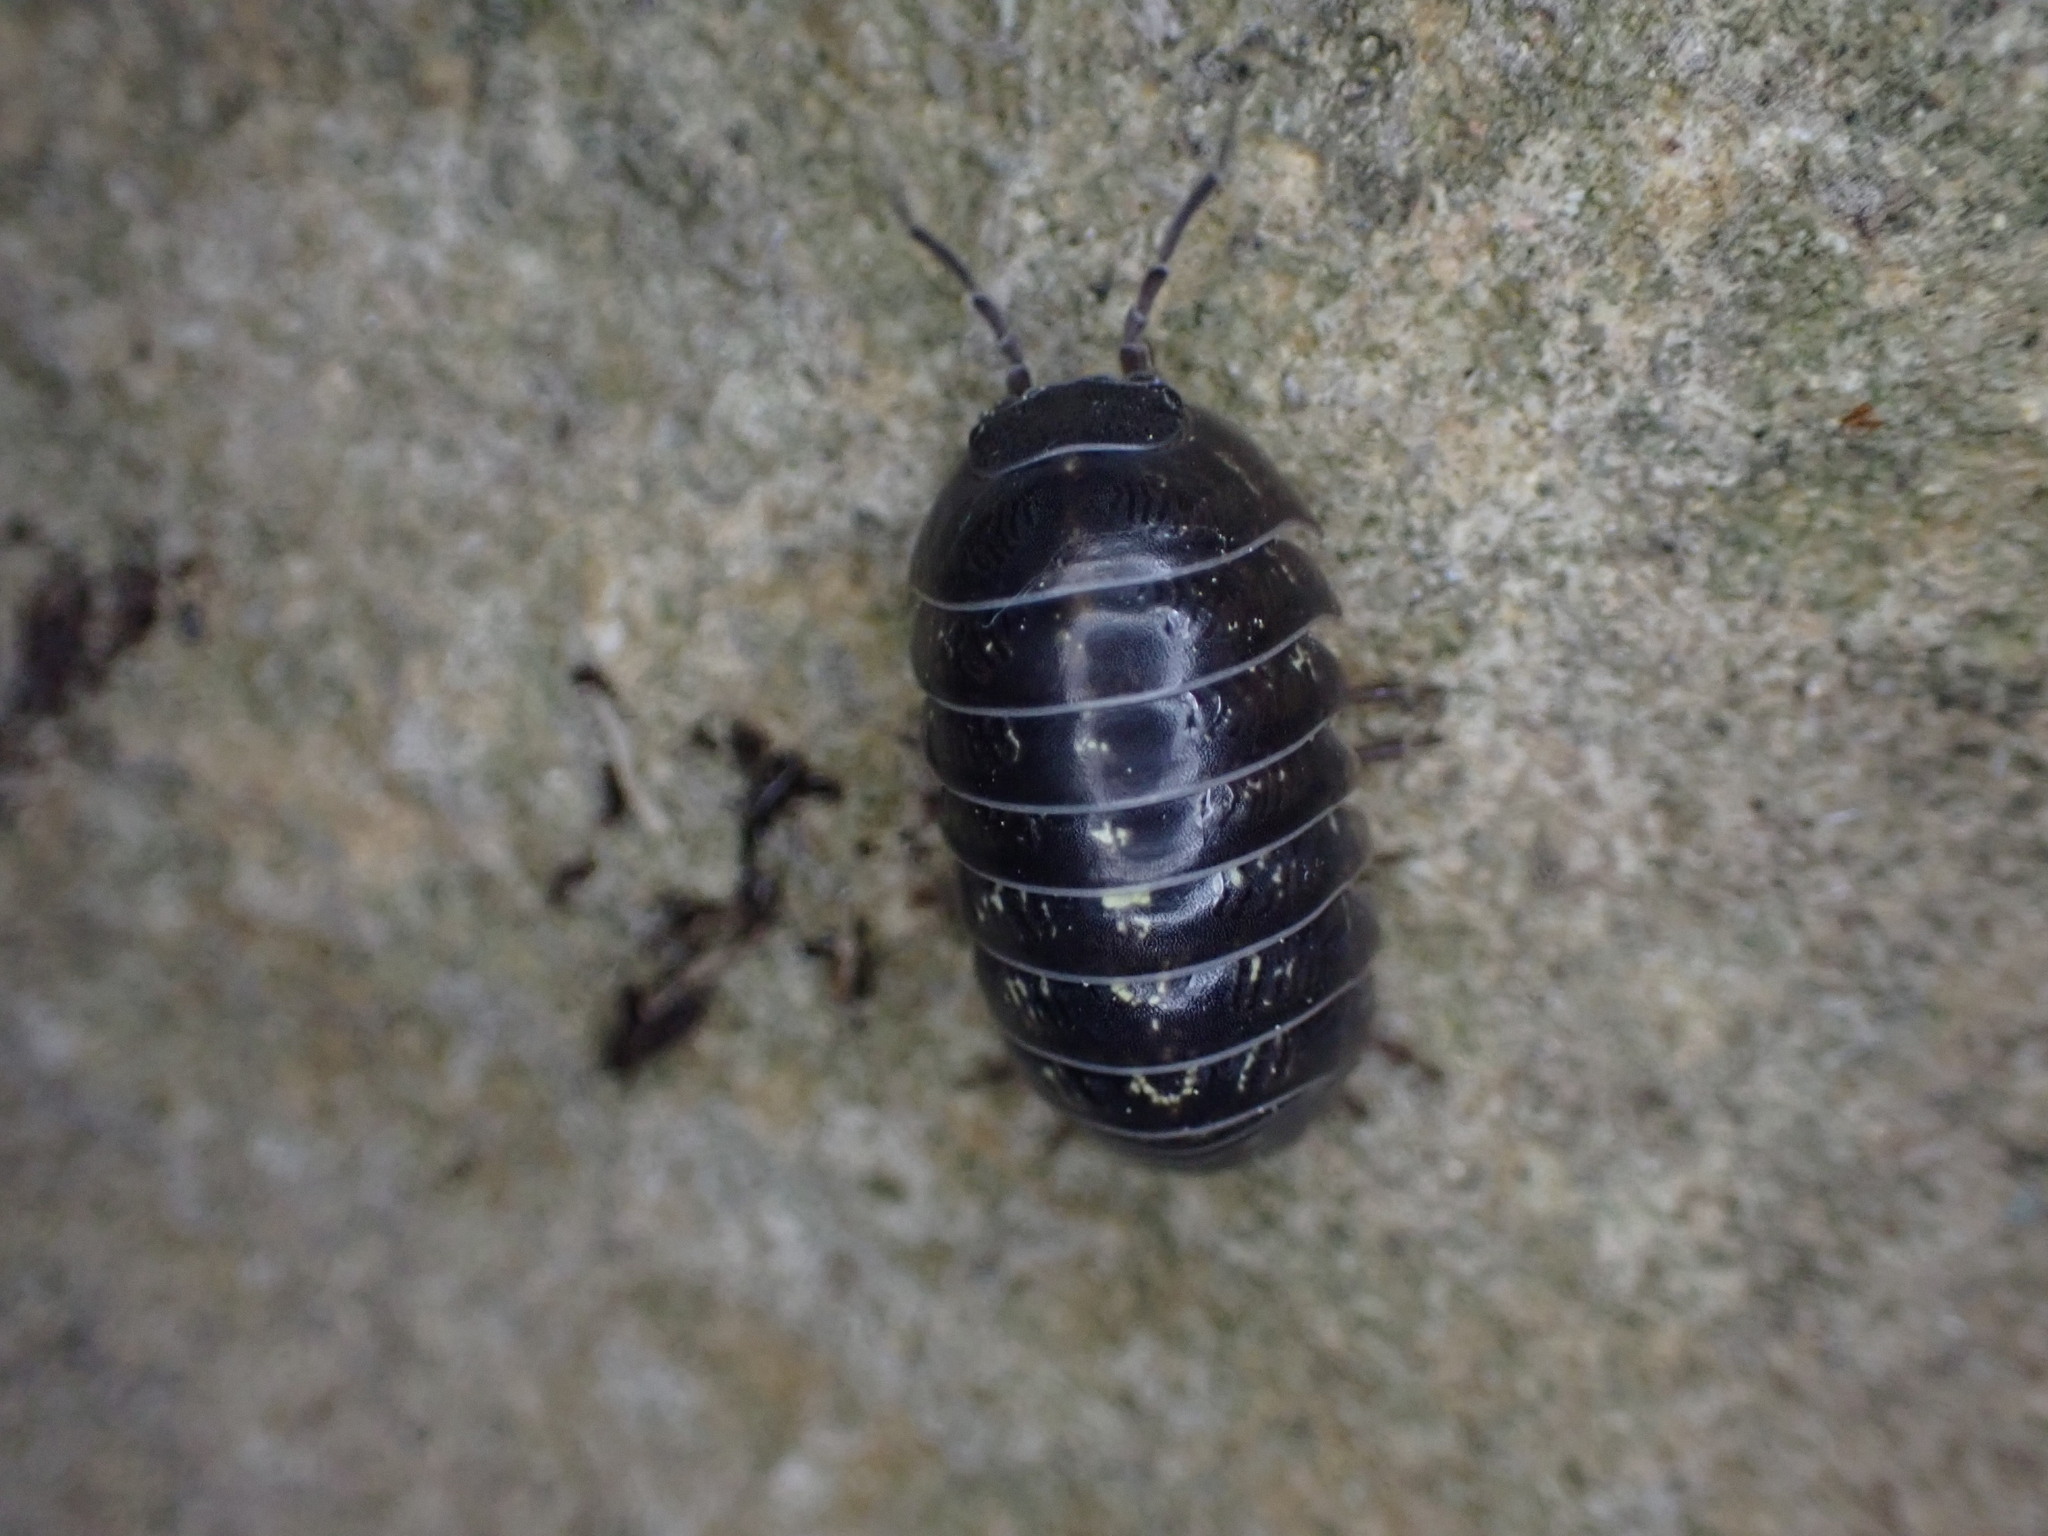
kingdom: Animalia
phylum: Arthropoda
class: Malacostraca
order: Isopoda
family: Armadillidiidae
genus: Armadillidium
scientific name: Armadillidium vulgare
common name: Common pill woodlouse
